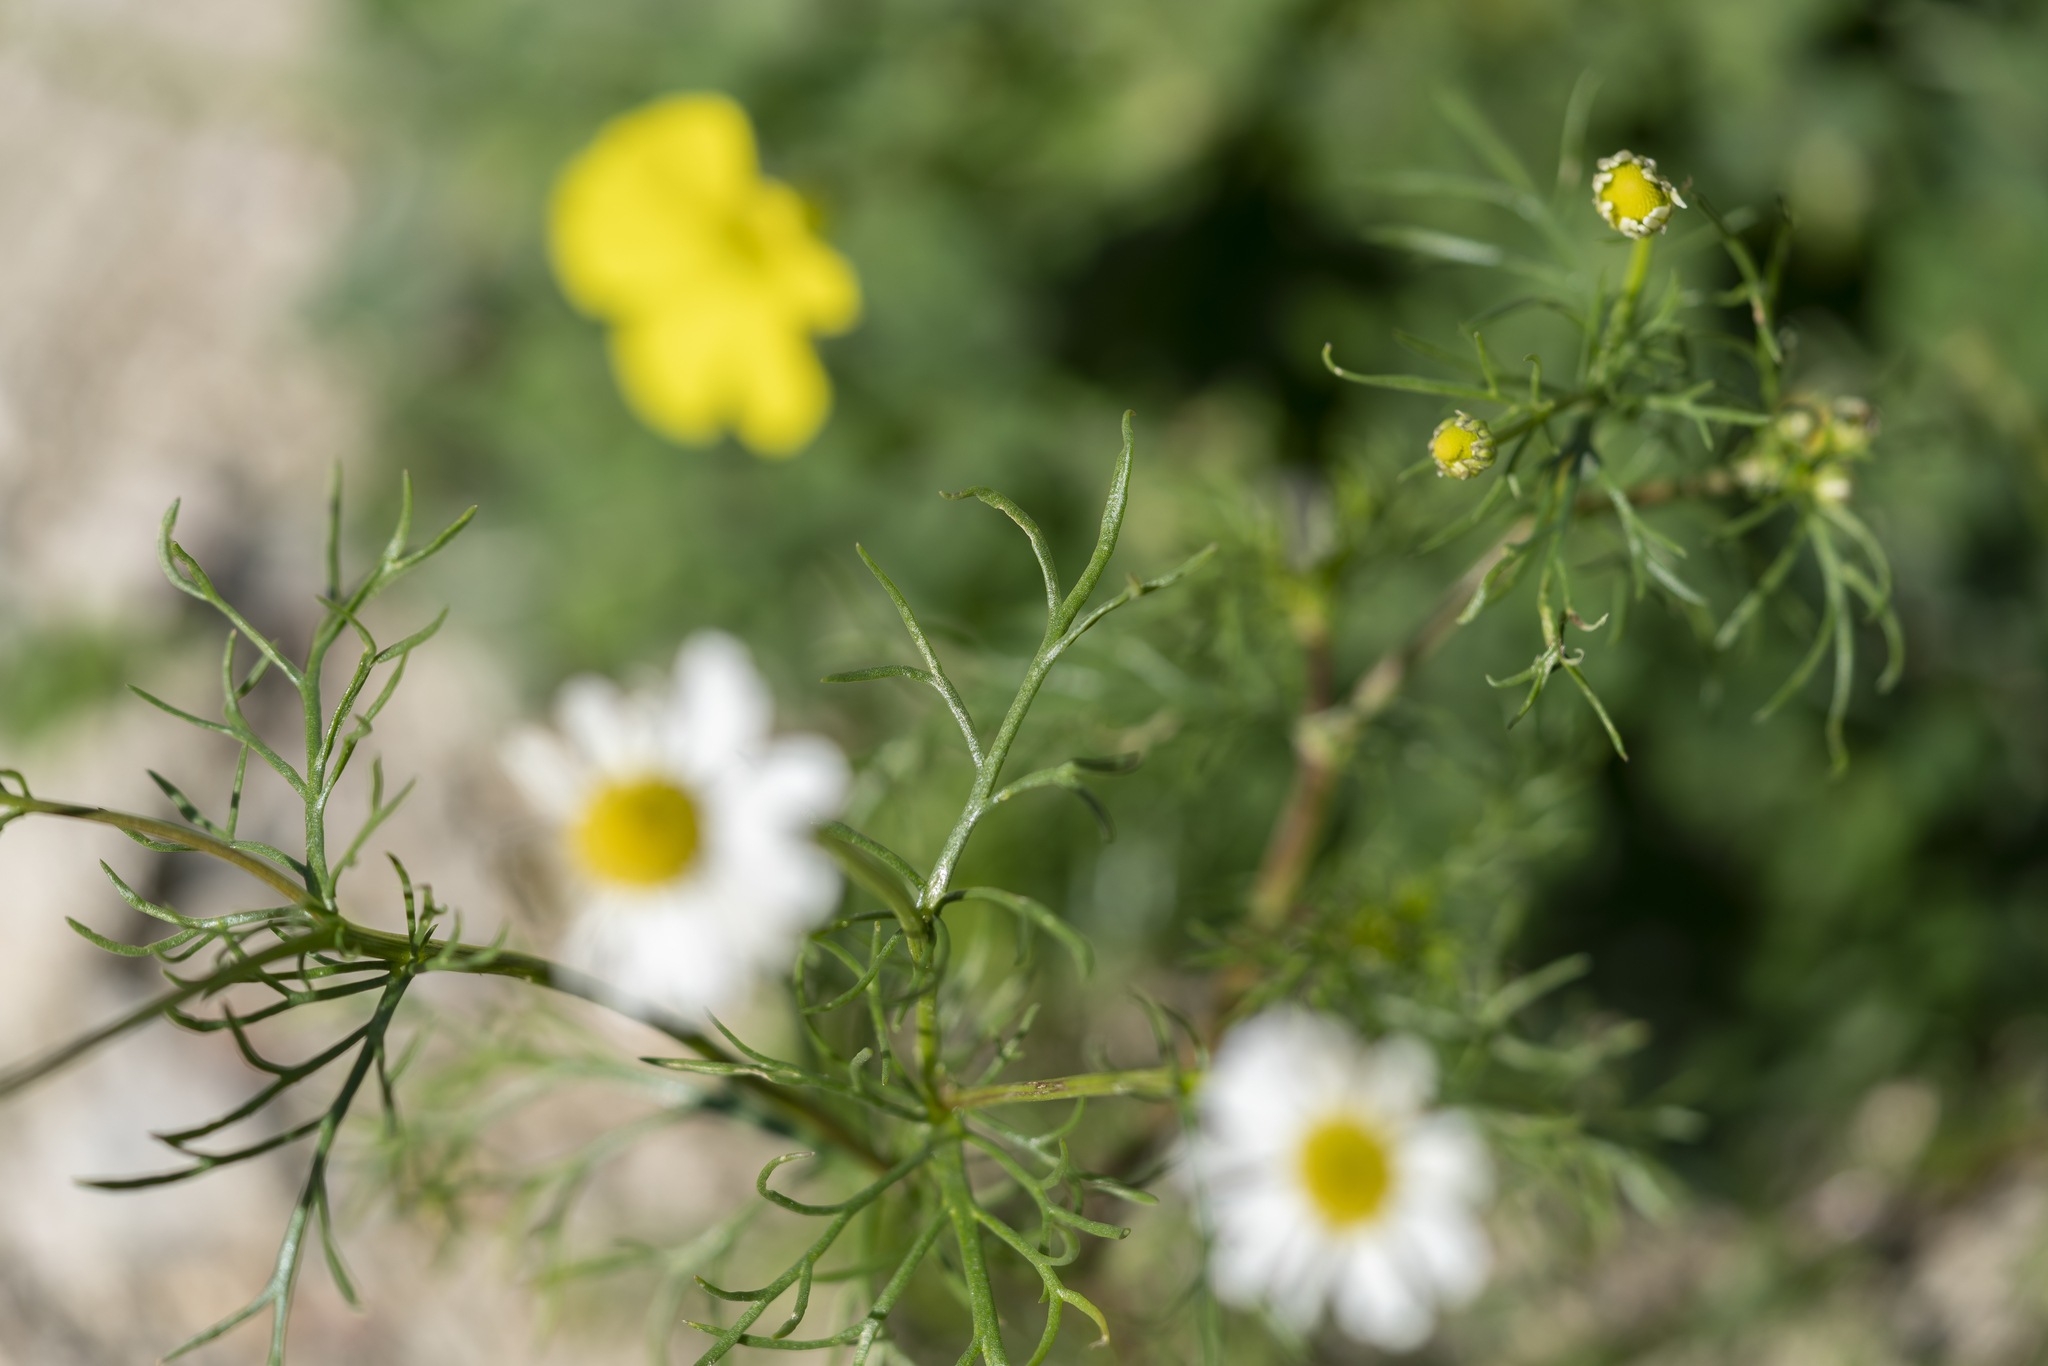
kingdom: Plantae
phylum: Tracheophyta
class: Magnoliopsida
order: Asterales
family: Asteraceae
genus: Matricaria
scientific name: Matricaria chamomilla
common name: Scented mayweed
